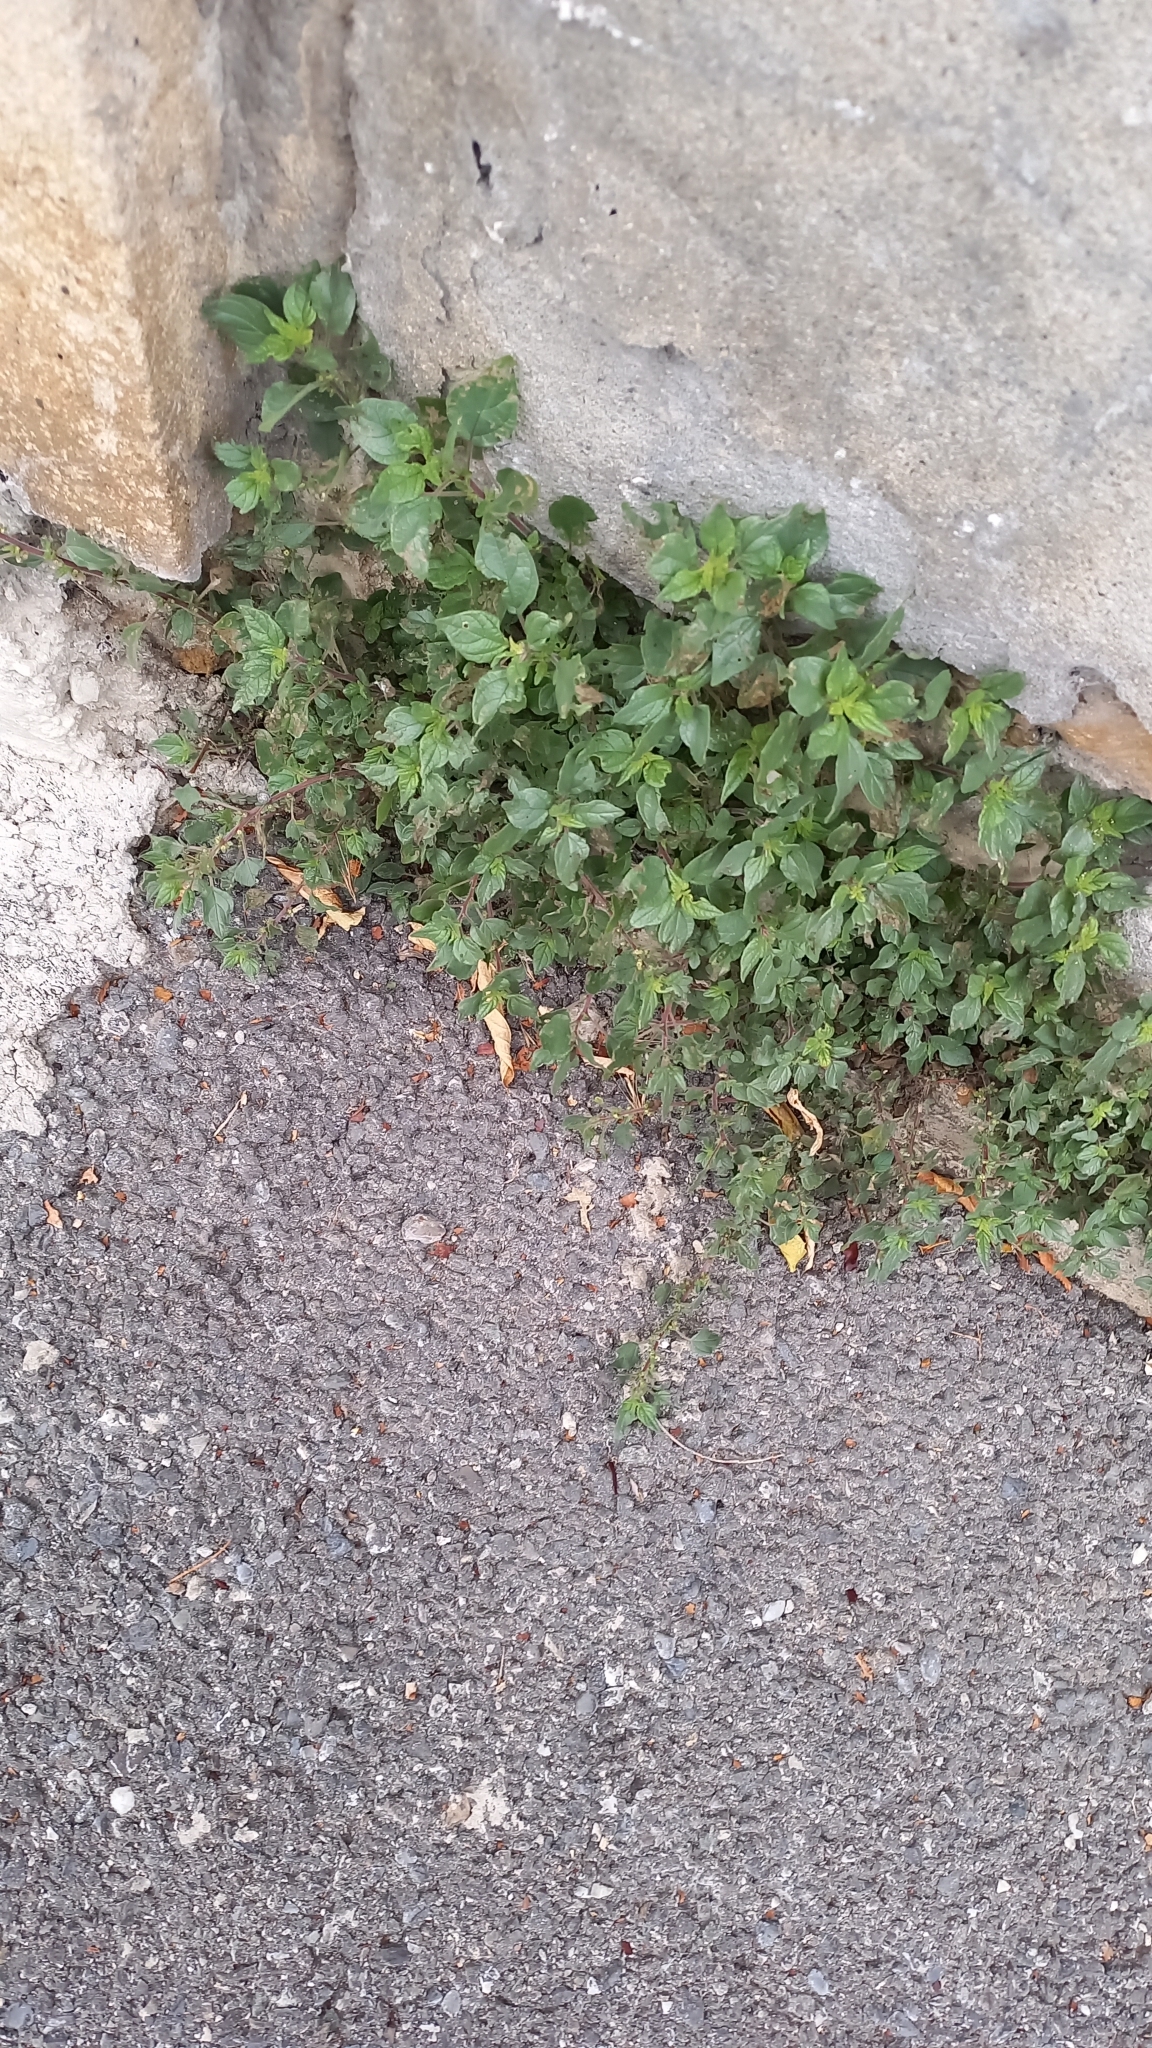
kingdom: Plantae
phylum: Tracheophyta
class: Magnoliopsida
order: Rosales
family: Urticaceae
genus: Parietaria
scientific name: Parietaria judaica
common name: Pellitory-of-the-wall
